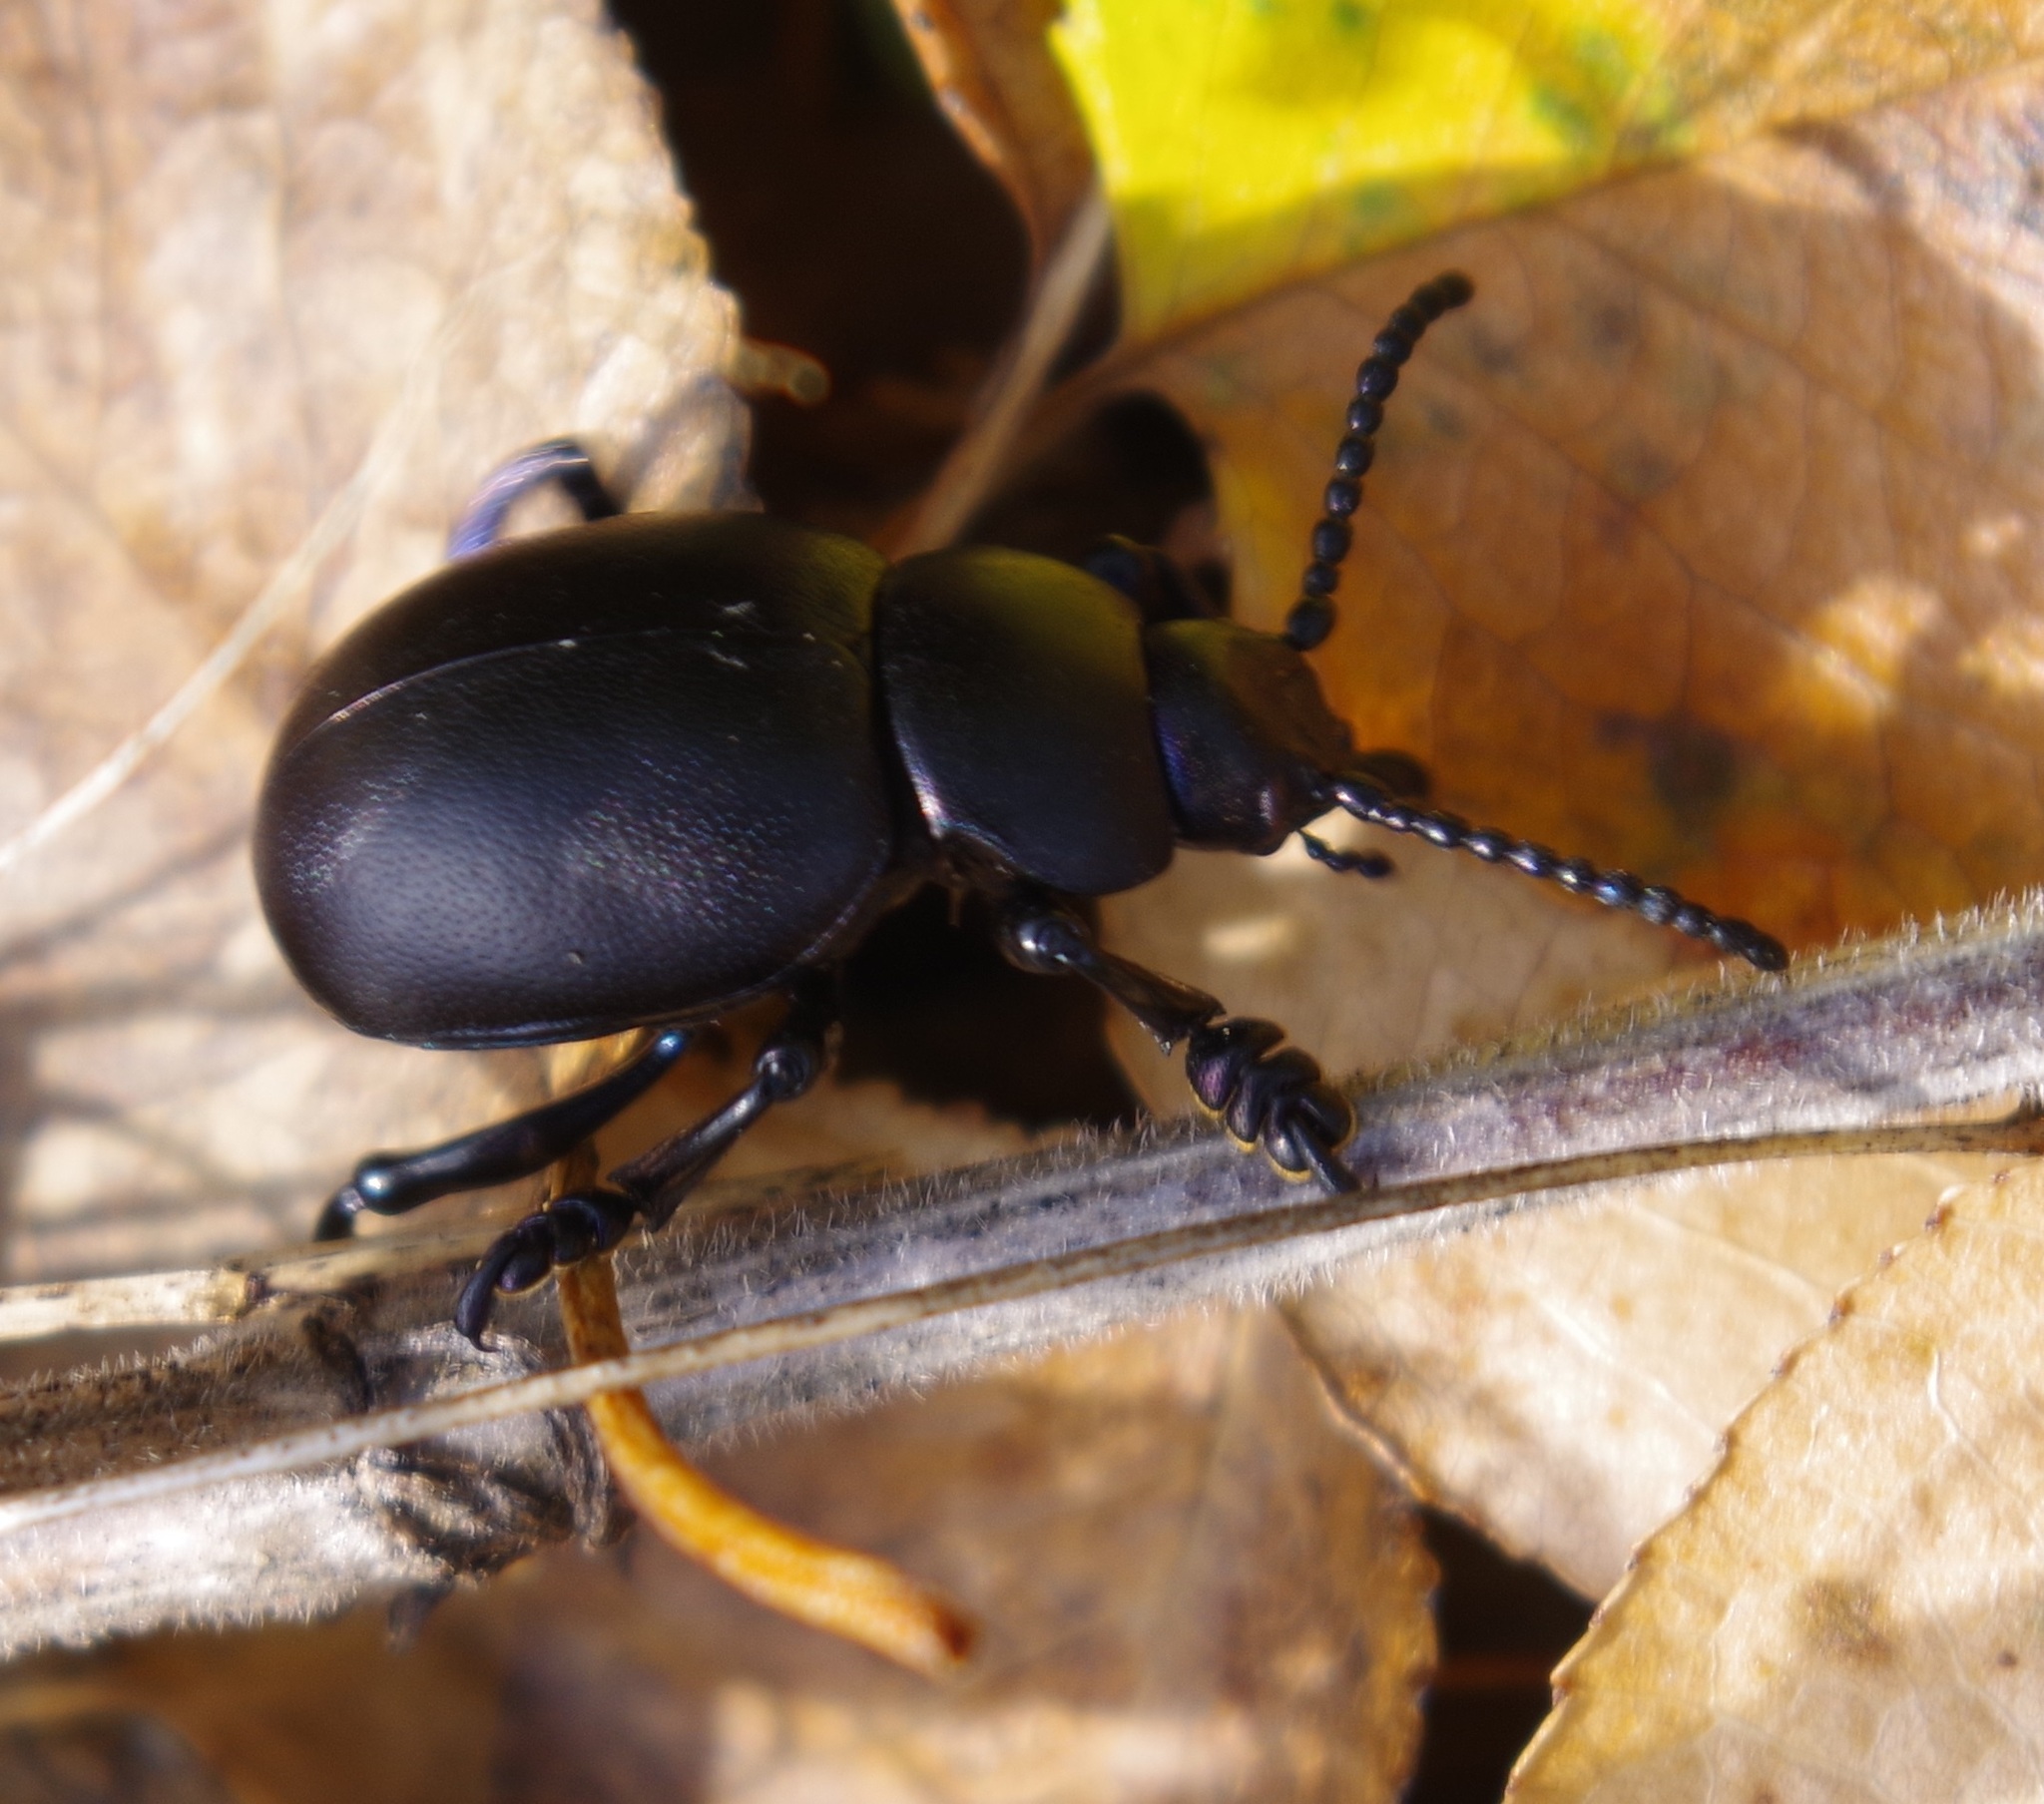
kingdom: Animalia
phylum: Arthropoda
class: Insecta
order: Coleoptera
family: Chrysomelidae
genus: Timarcha
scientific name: Timarcha tenebricosa
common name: Bloody-nosed beetle
